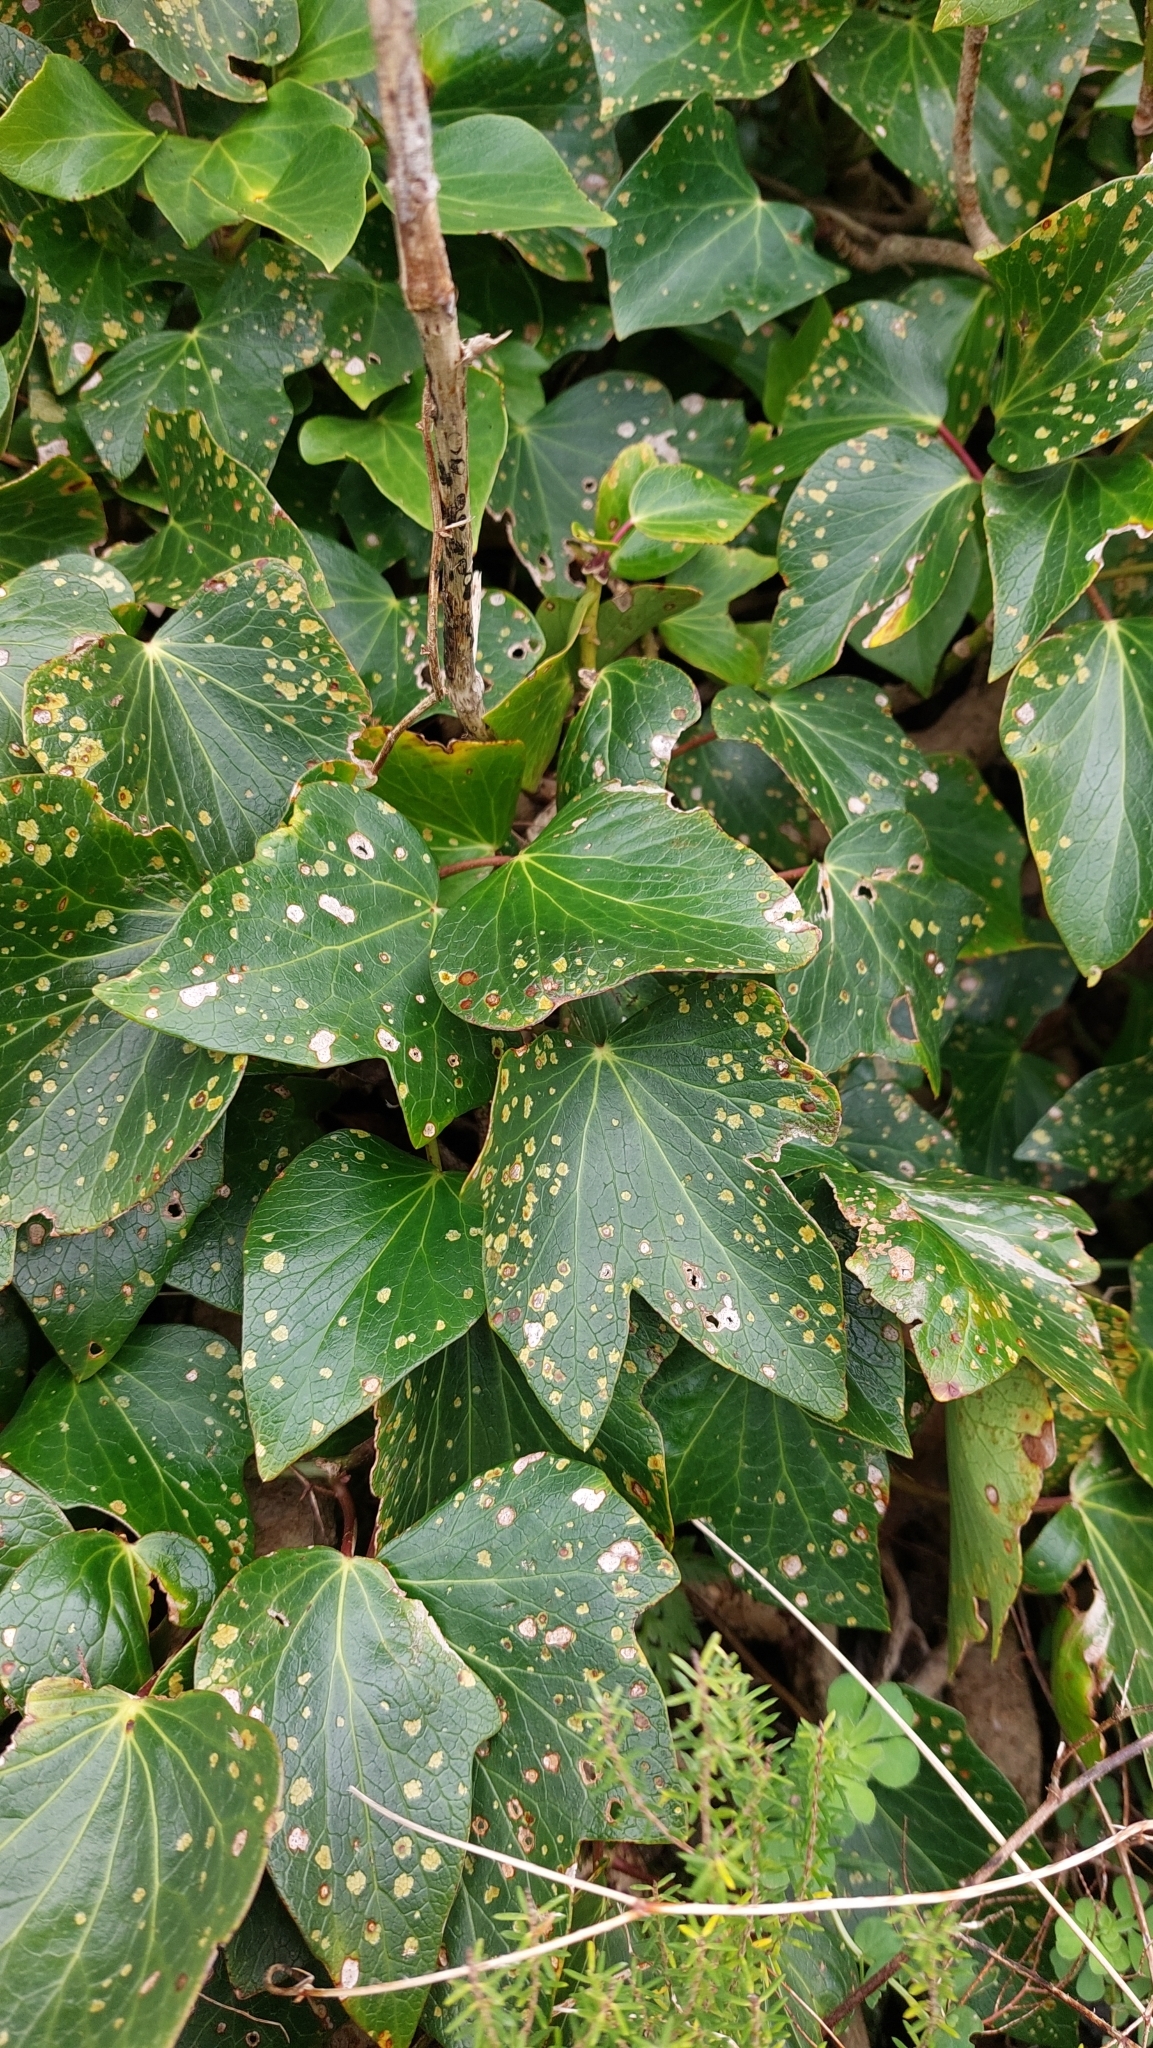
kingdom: Plantae
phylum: Tracheophyta
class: Magnoliopsida
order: Apiales
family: Araliaceae
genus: Hedera
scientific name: Hedera azorica
